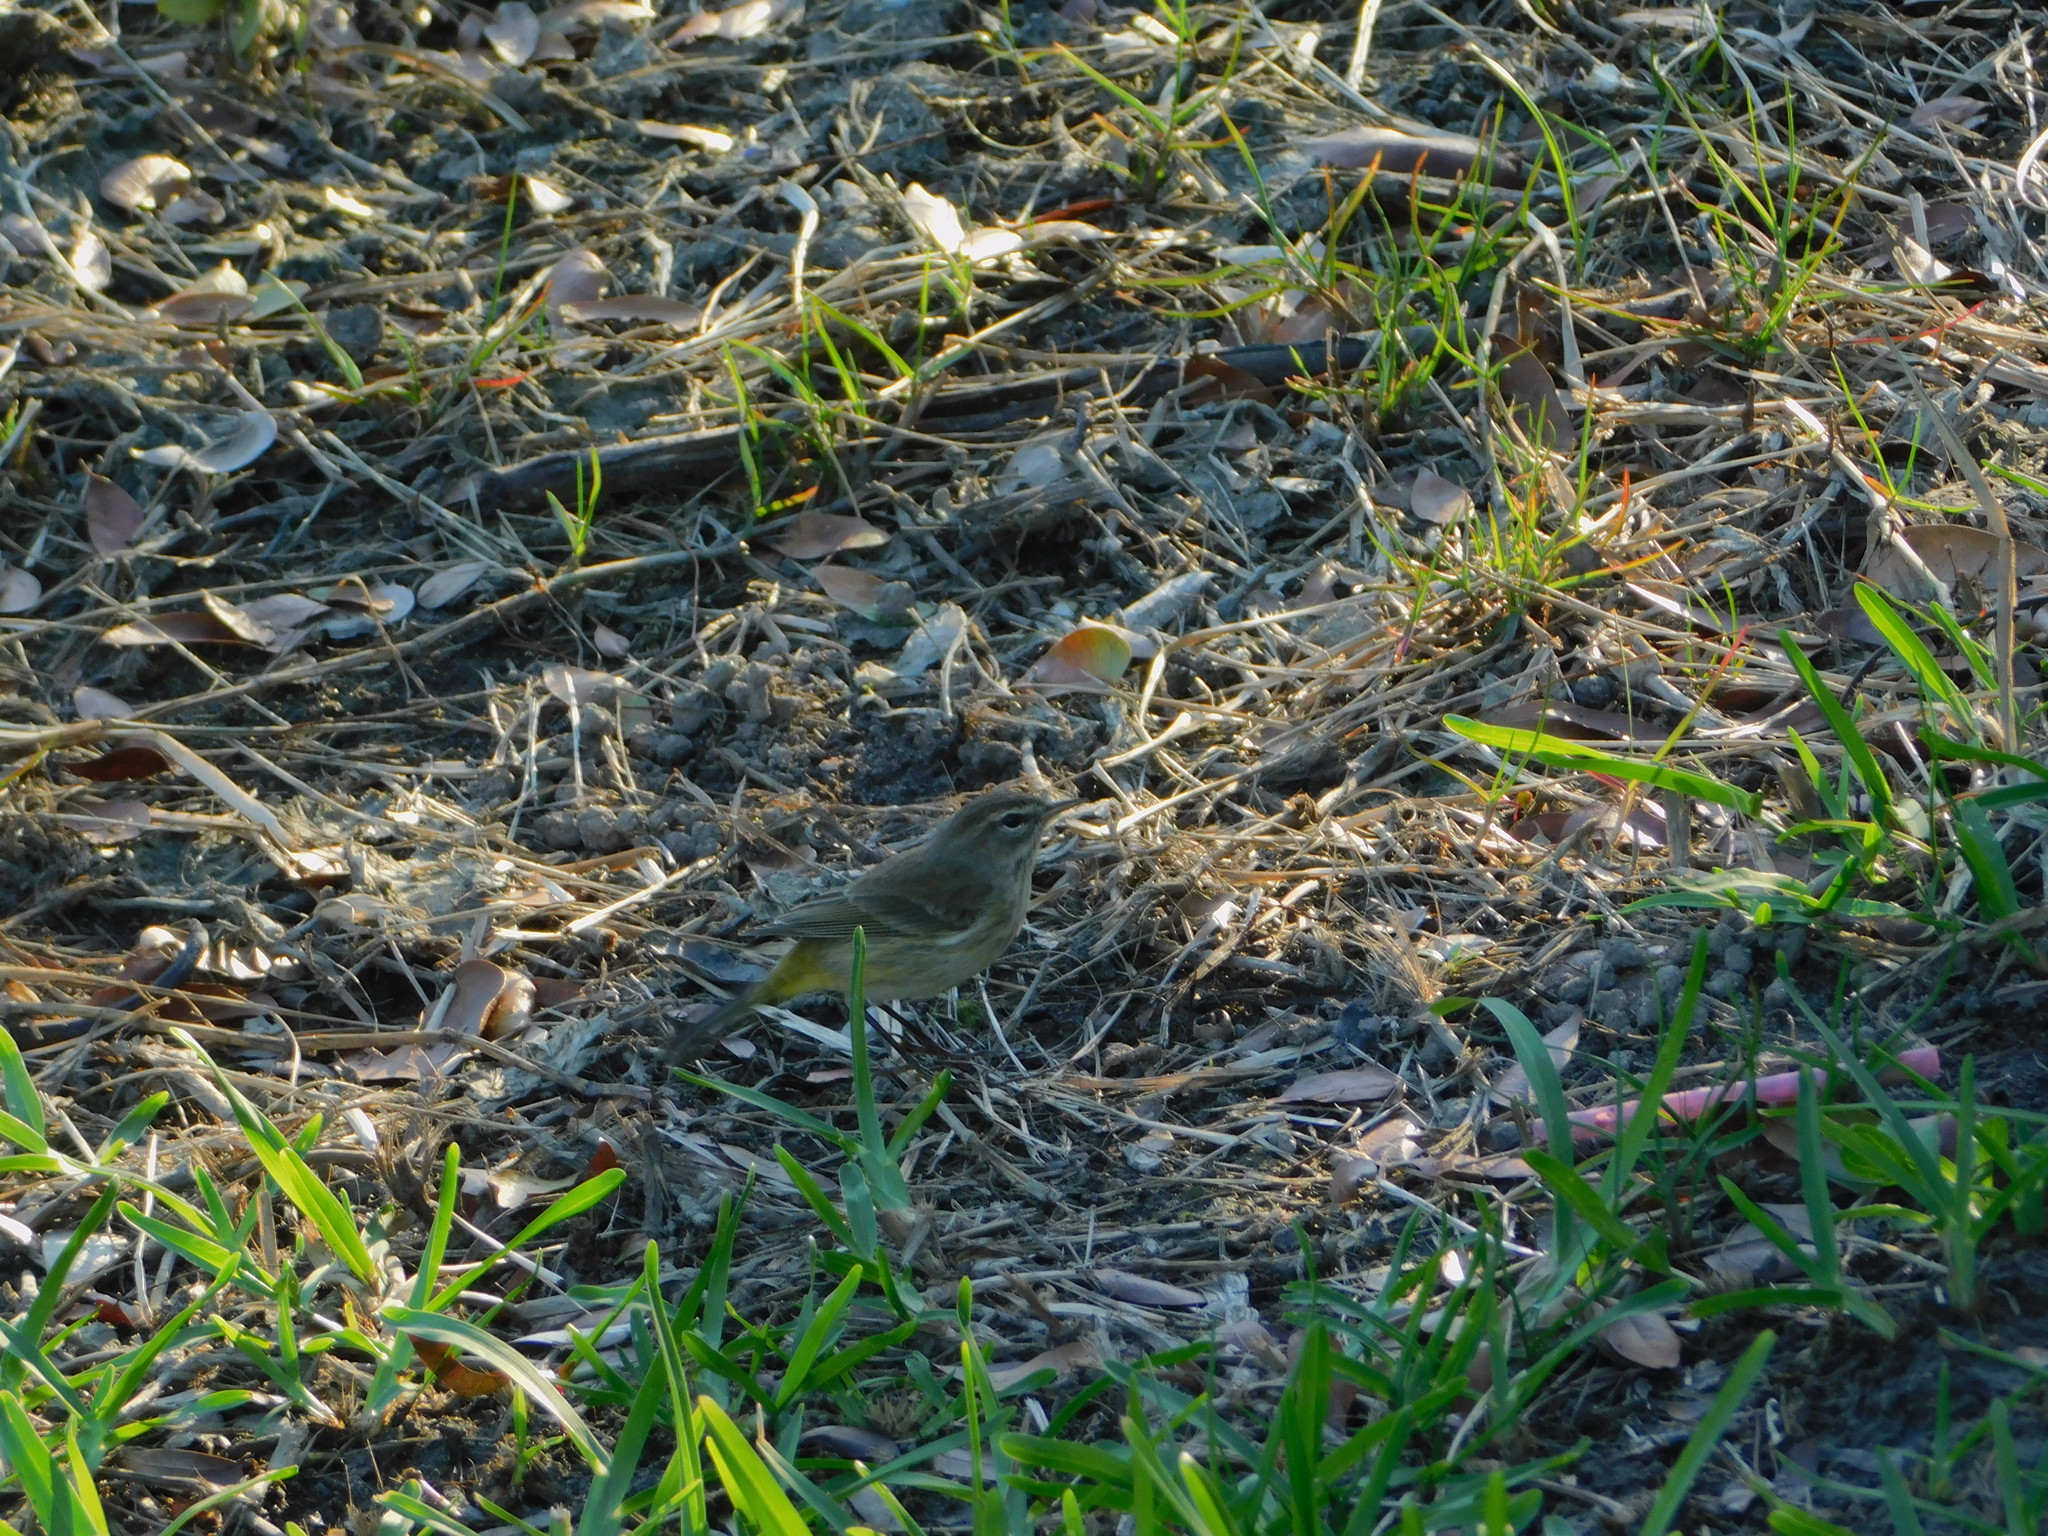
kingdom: Animalia
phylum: Chordata
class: Aves
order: Passeriformes
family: Parulidae
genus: Setophaga
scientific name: Setophaga palmarum
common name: Palm warbler
